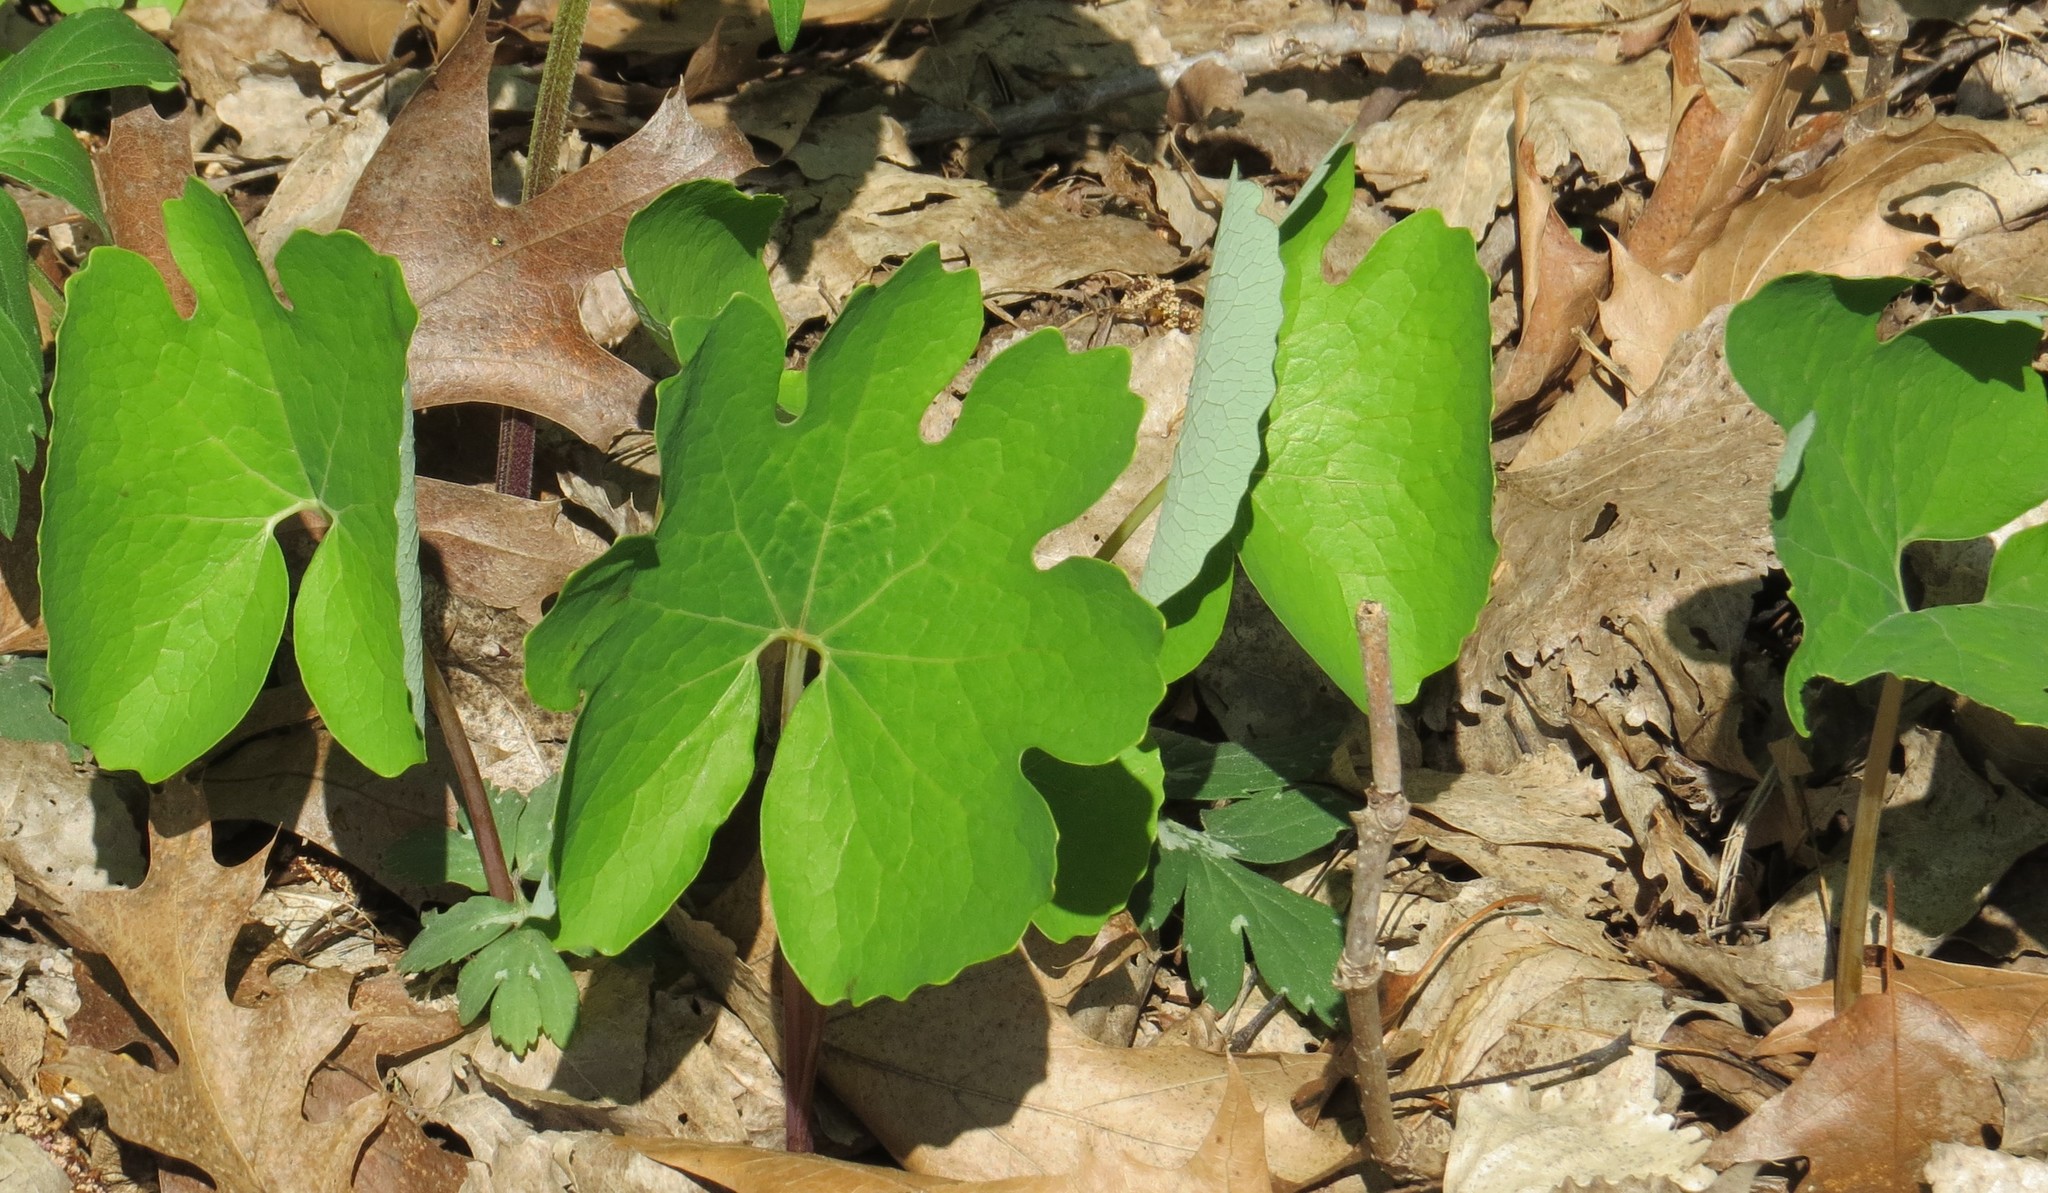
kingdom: Plantae
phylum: Tracheophyta
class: Magnoliopsida
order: Ranunculales
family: Papaveraceae
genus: Sanguinaria
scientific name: Sanguinaria canadensis
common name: Bloodroot
